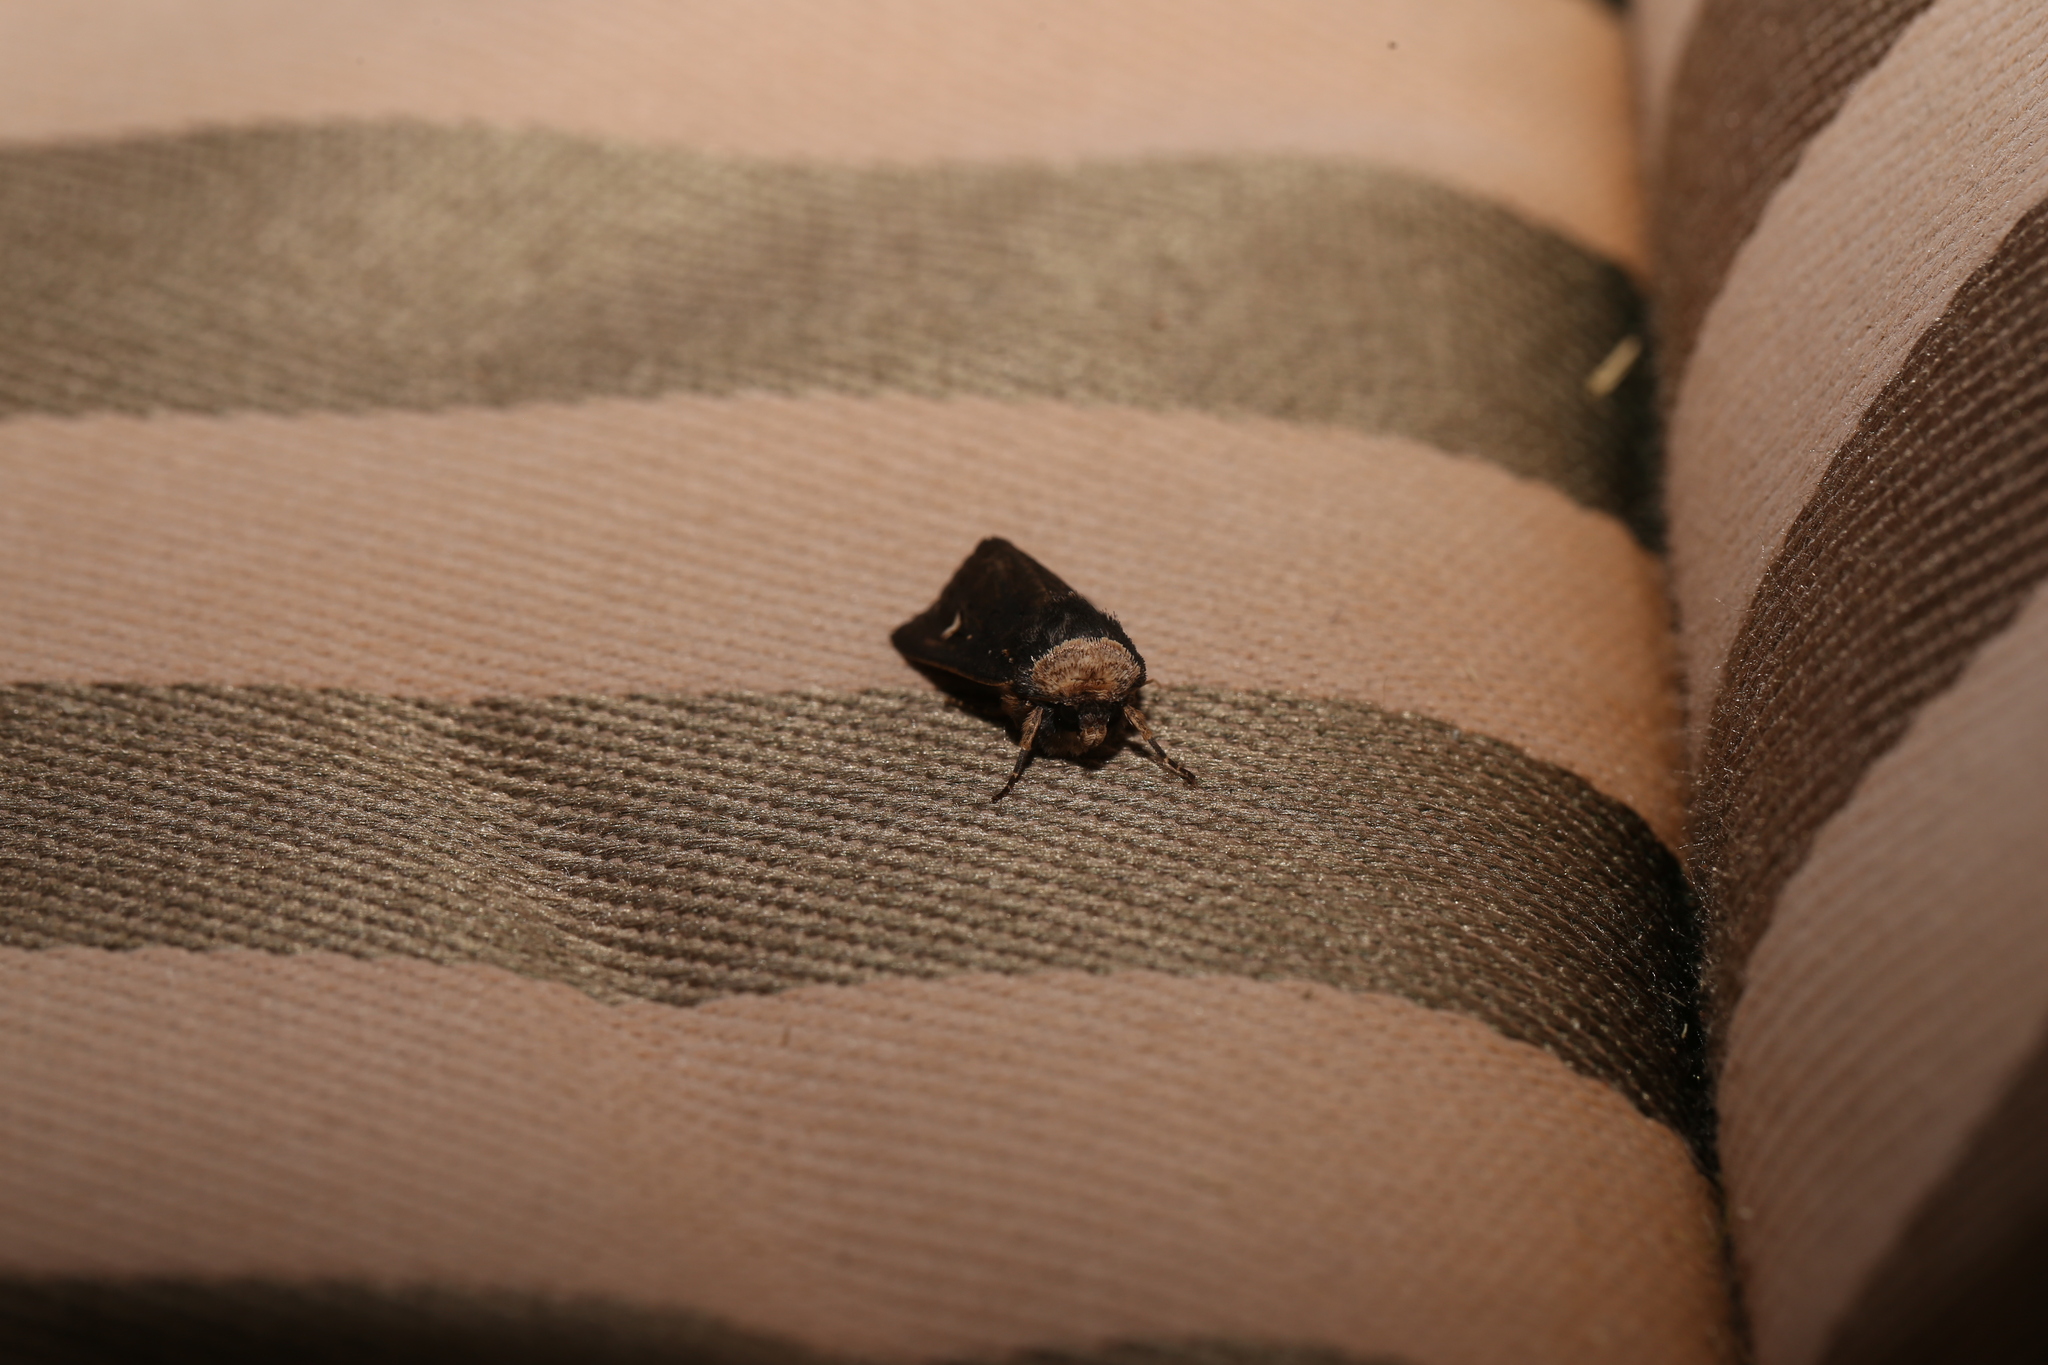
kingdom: Animalia
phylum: Arthropoda
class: Insecta
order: Lepidoptera
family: Noctuidae
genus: Proteuxoa
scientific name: Proteuxoa testaceicollis
